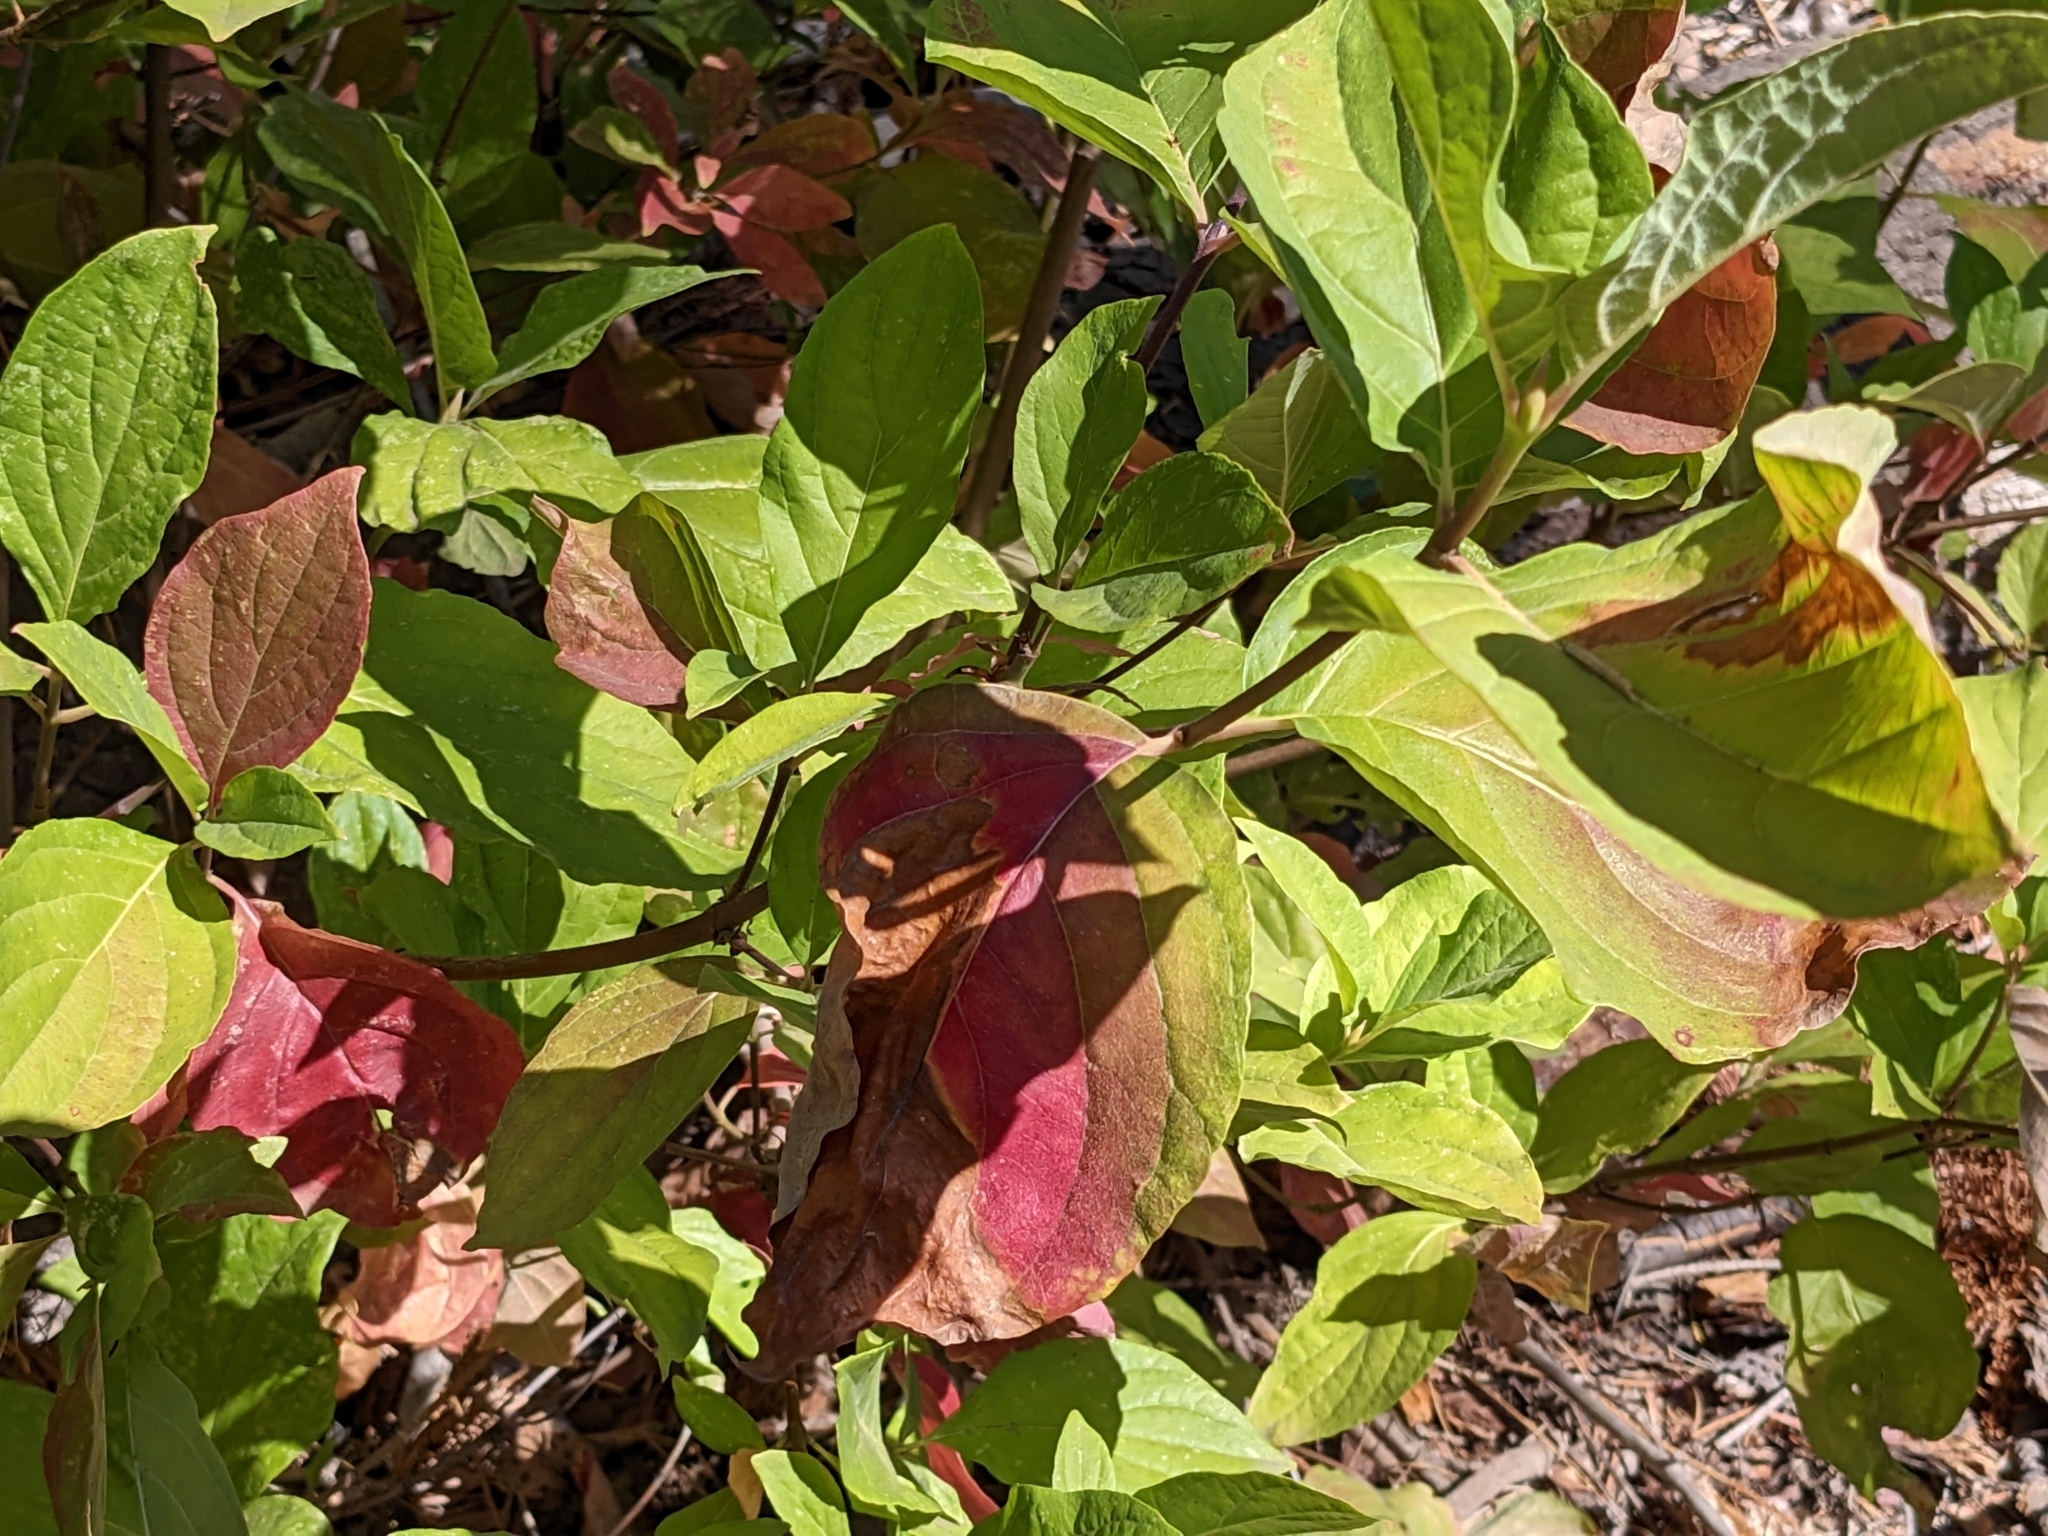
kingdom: Plantae
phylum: Tracheophyta
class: Magnoliopsida
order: Cornales
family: Cornaceae
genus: Cornus
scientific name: Cornus nuttallii
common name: Pacific dogwood
